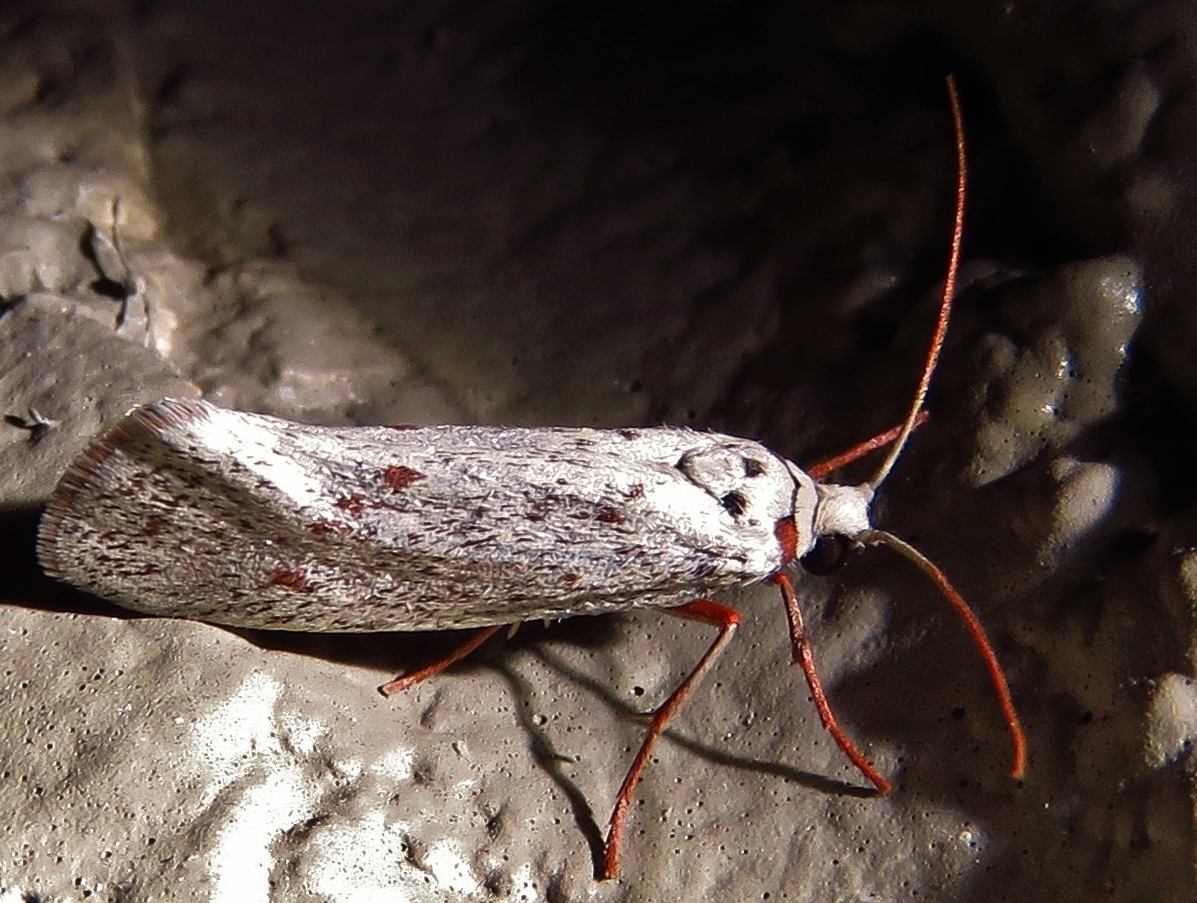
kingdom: Animalia
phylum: Arthropoda
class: Insecta
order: Lepidoptera
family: Lacturidae
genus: Lactura
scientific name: Lactura
